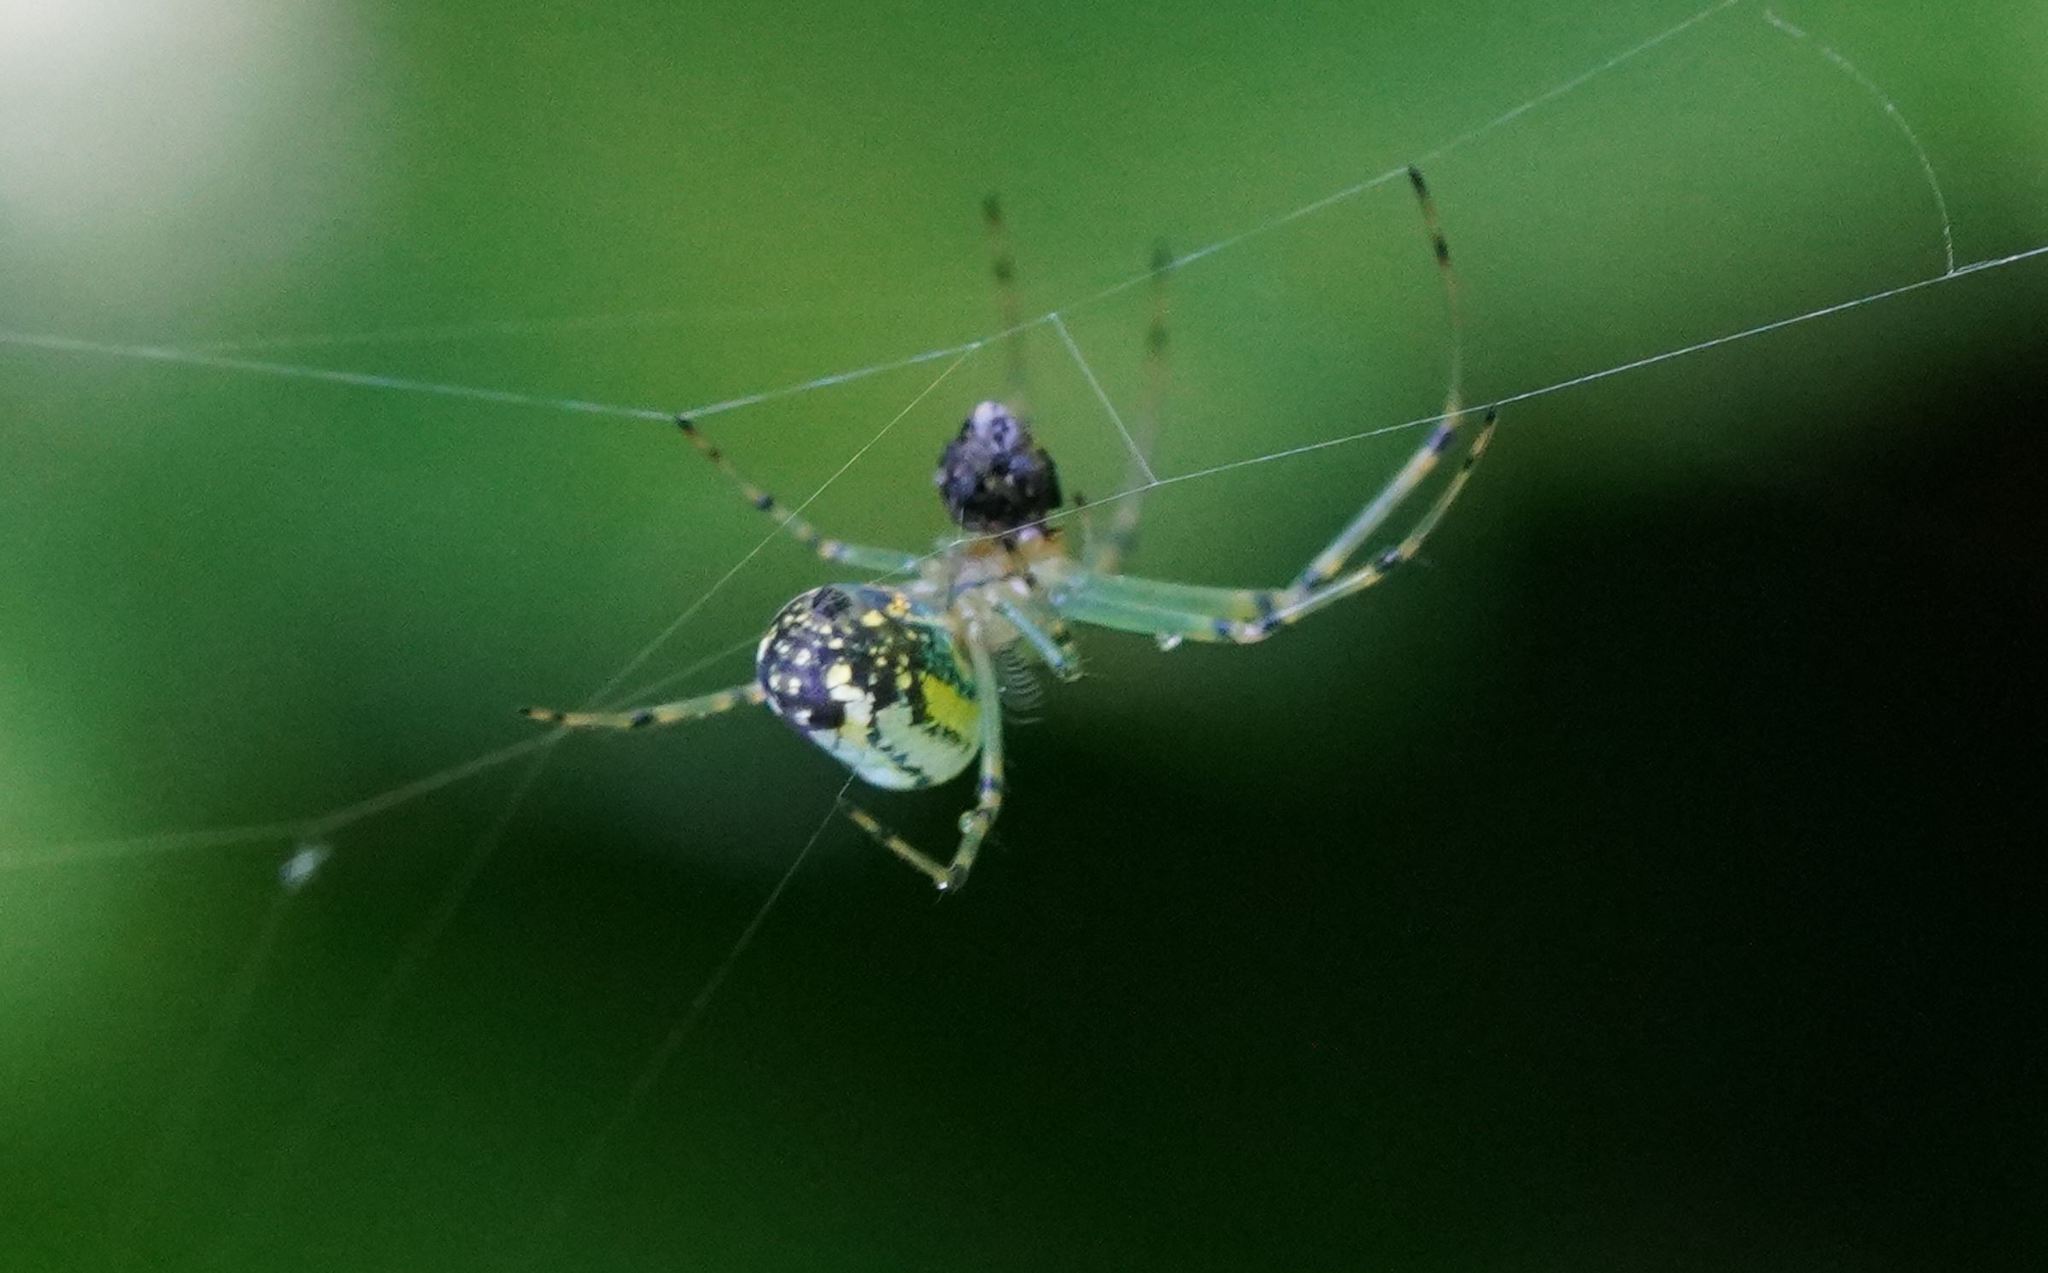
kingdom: Animalia
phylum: Arthropoda
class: Arachnida
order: Araneae
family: Tetragnathidae
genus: Leucauge
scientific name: Leucauge venusta
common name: Longjawed orb weavers
